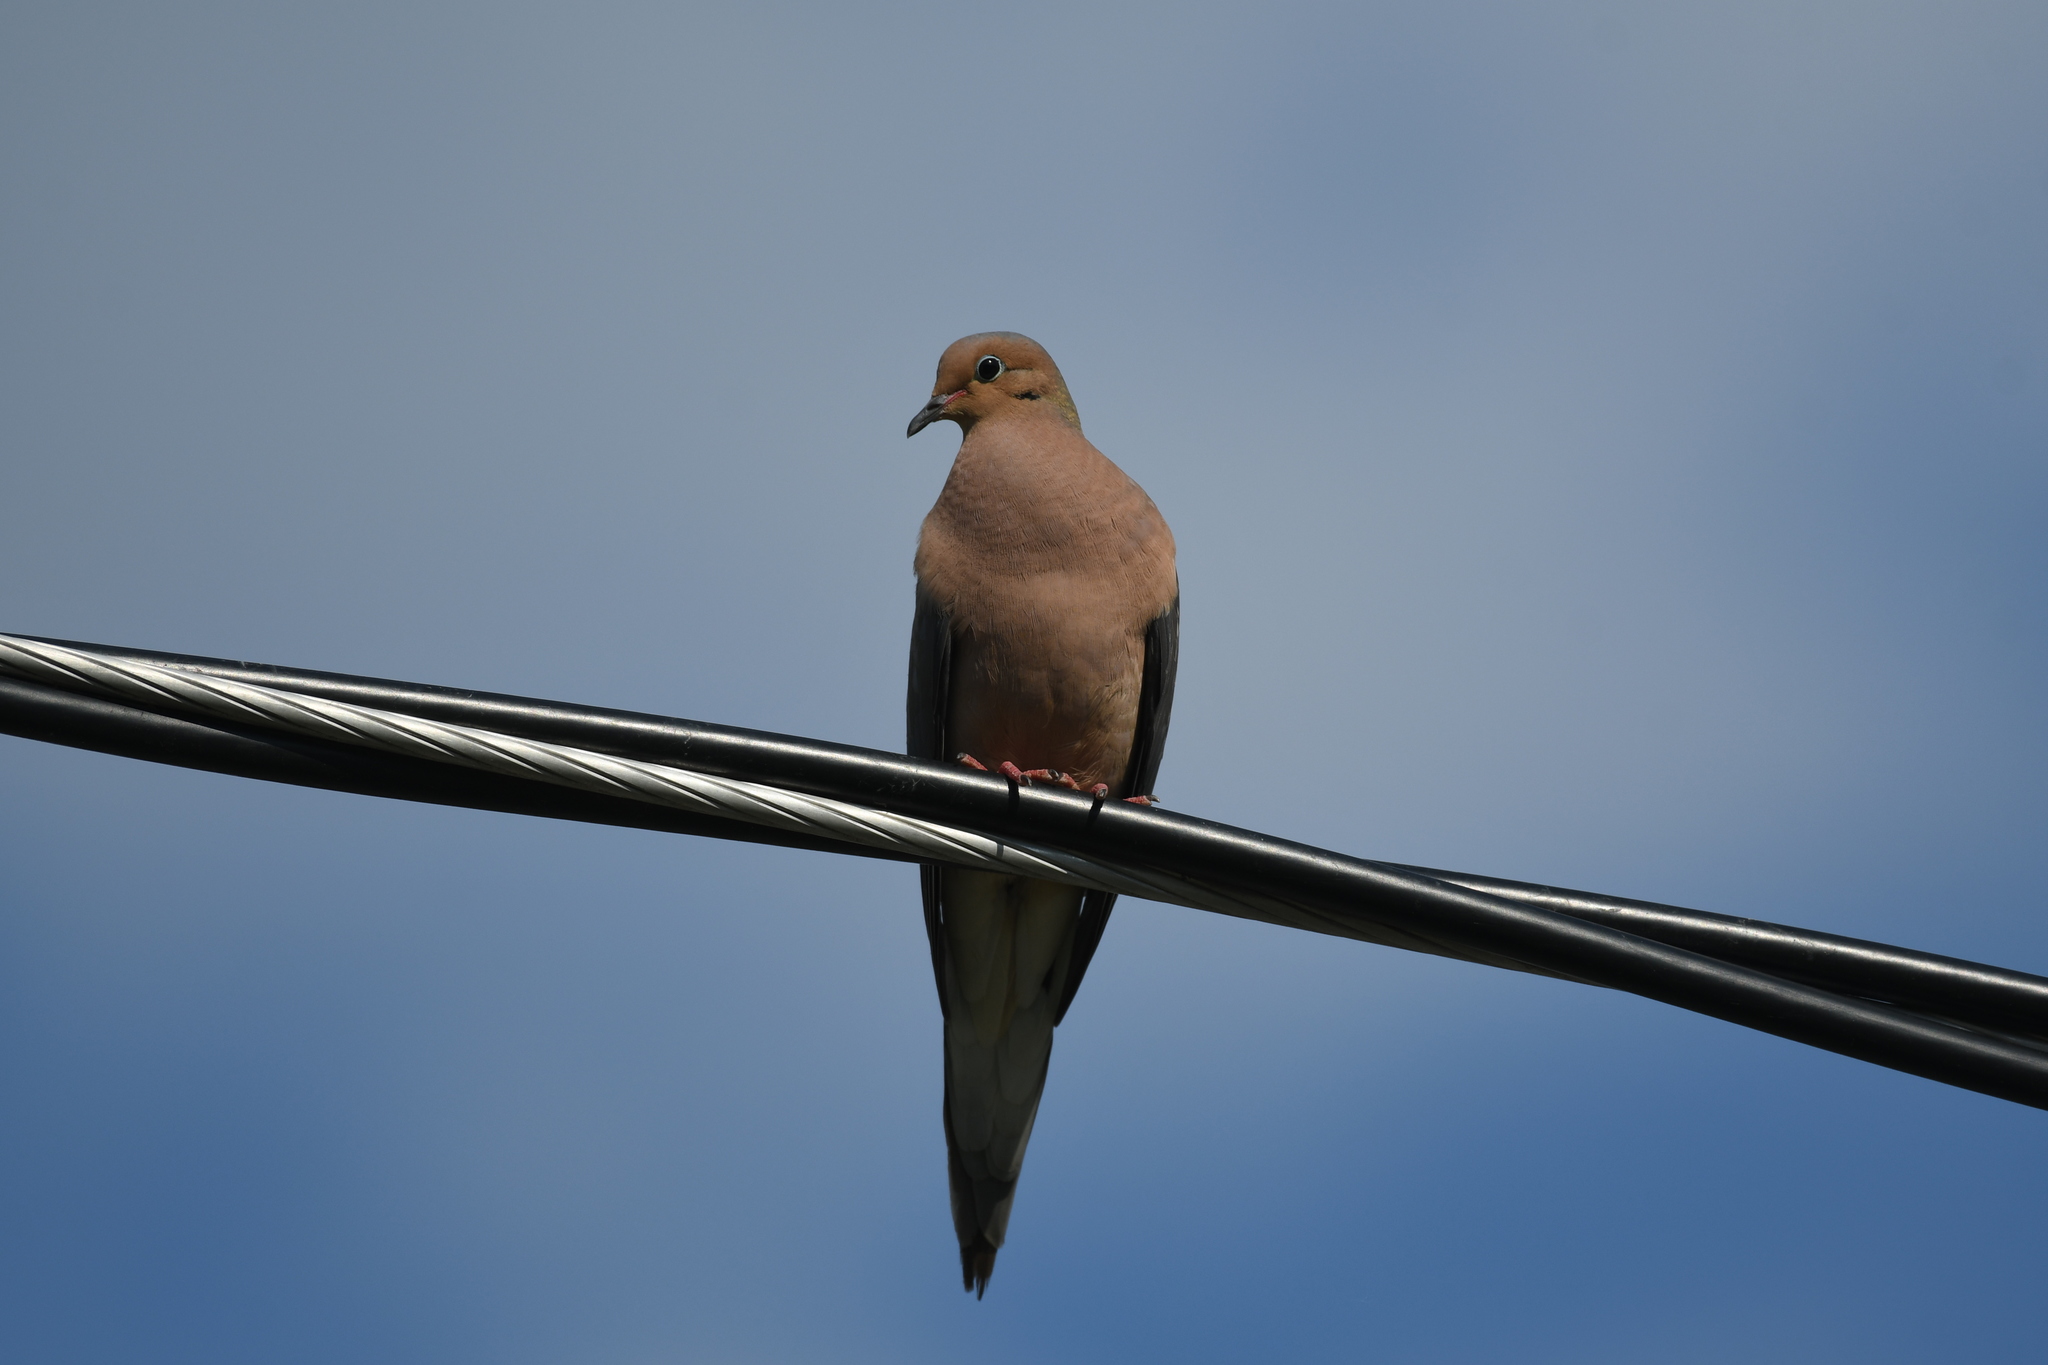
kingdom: Animalia
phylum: Chordata
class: Aves
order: Columbiformes
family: Columbidae
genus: Zenaida
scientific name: Zenaida macroura
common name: Mourning dove
